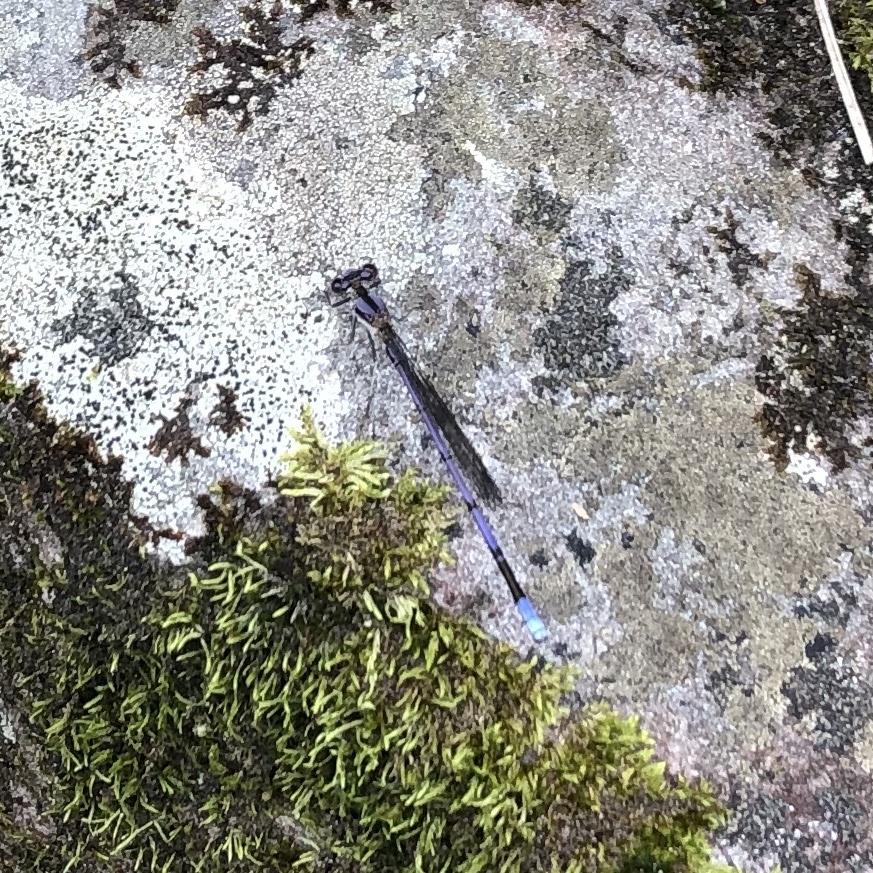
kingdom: Animalia
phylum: Arthropoda
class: Insecta
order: Odonata
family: Coenagrionidae
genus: Argia
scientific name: Argia fumipennis
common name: Variable dancer
